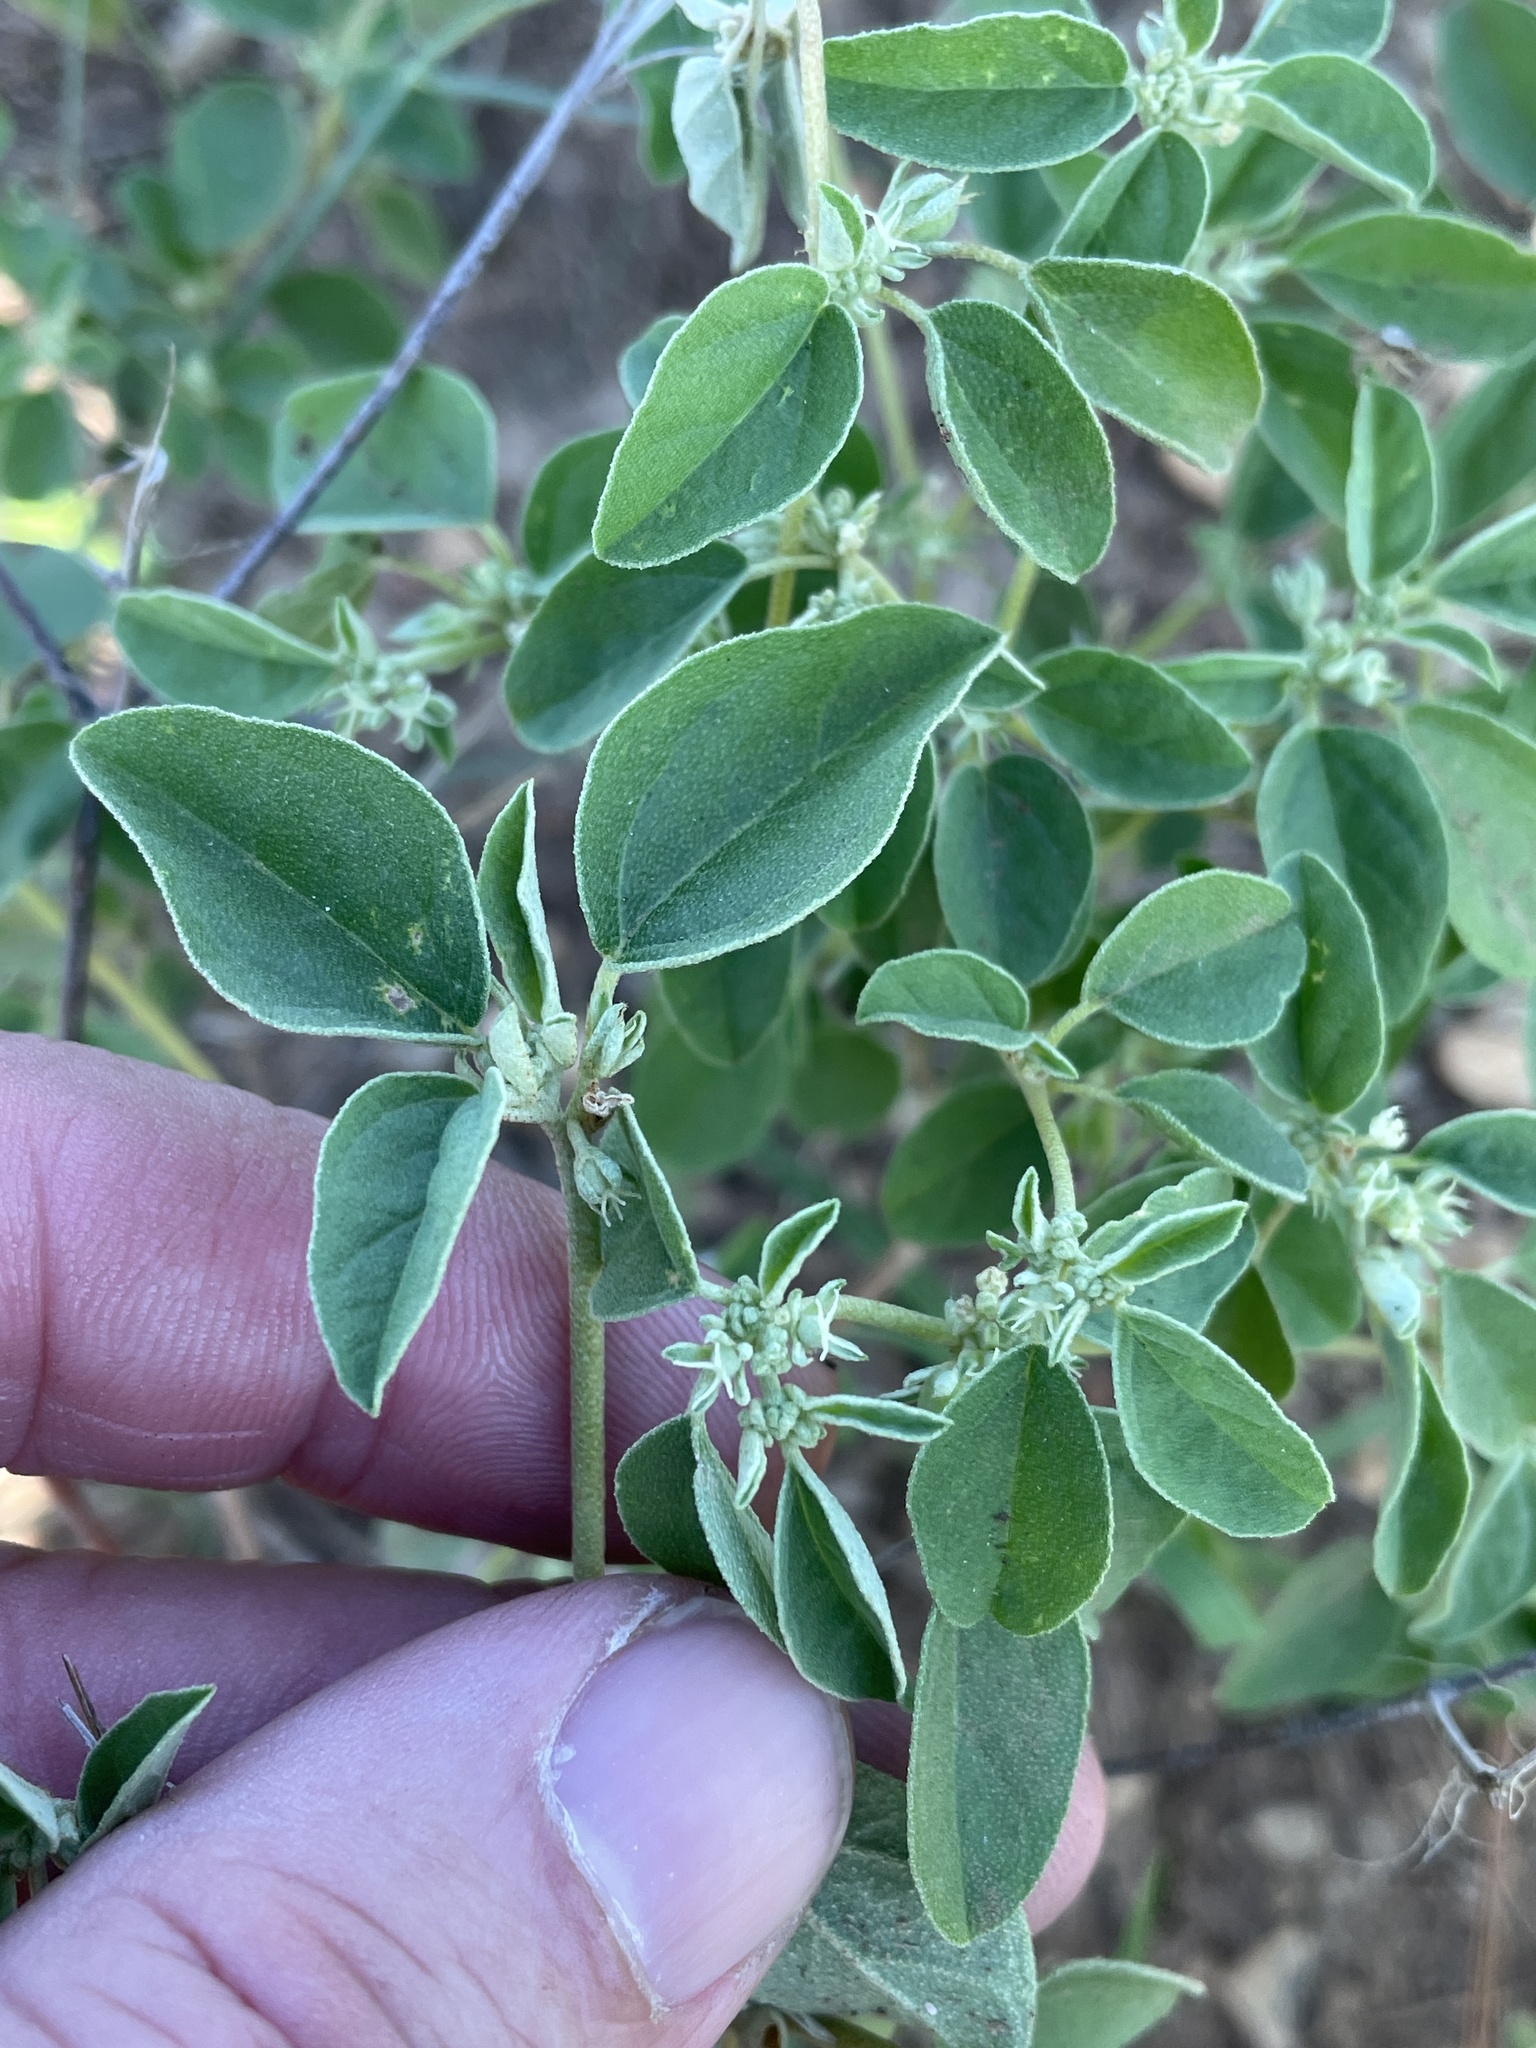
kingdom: Plantae
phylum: Tracheophyta
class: Magnoliopsida
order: Malpighiales
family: Euphorbiaceae
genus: Croton
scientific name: Croton monanthogynus
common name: One-seed croton
